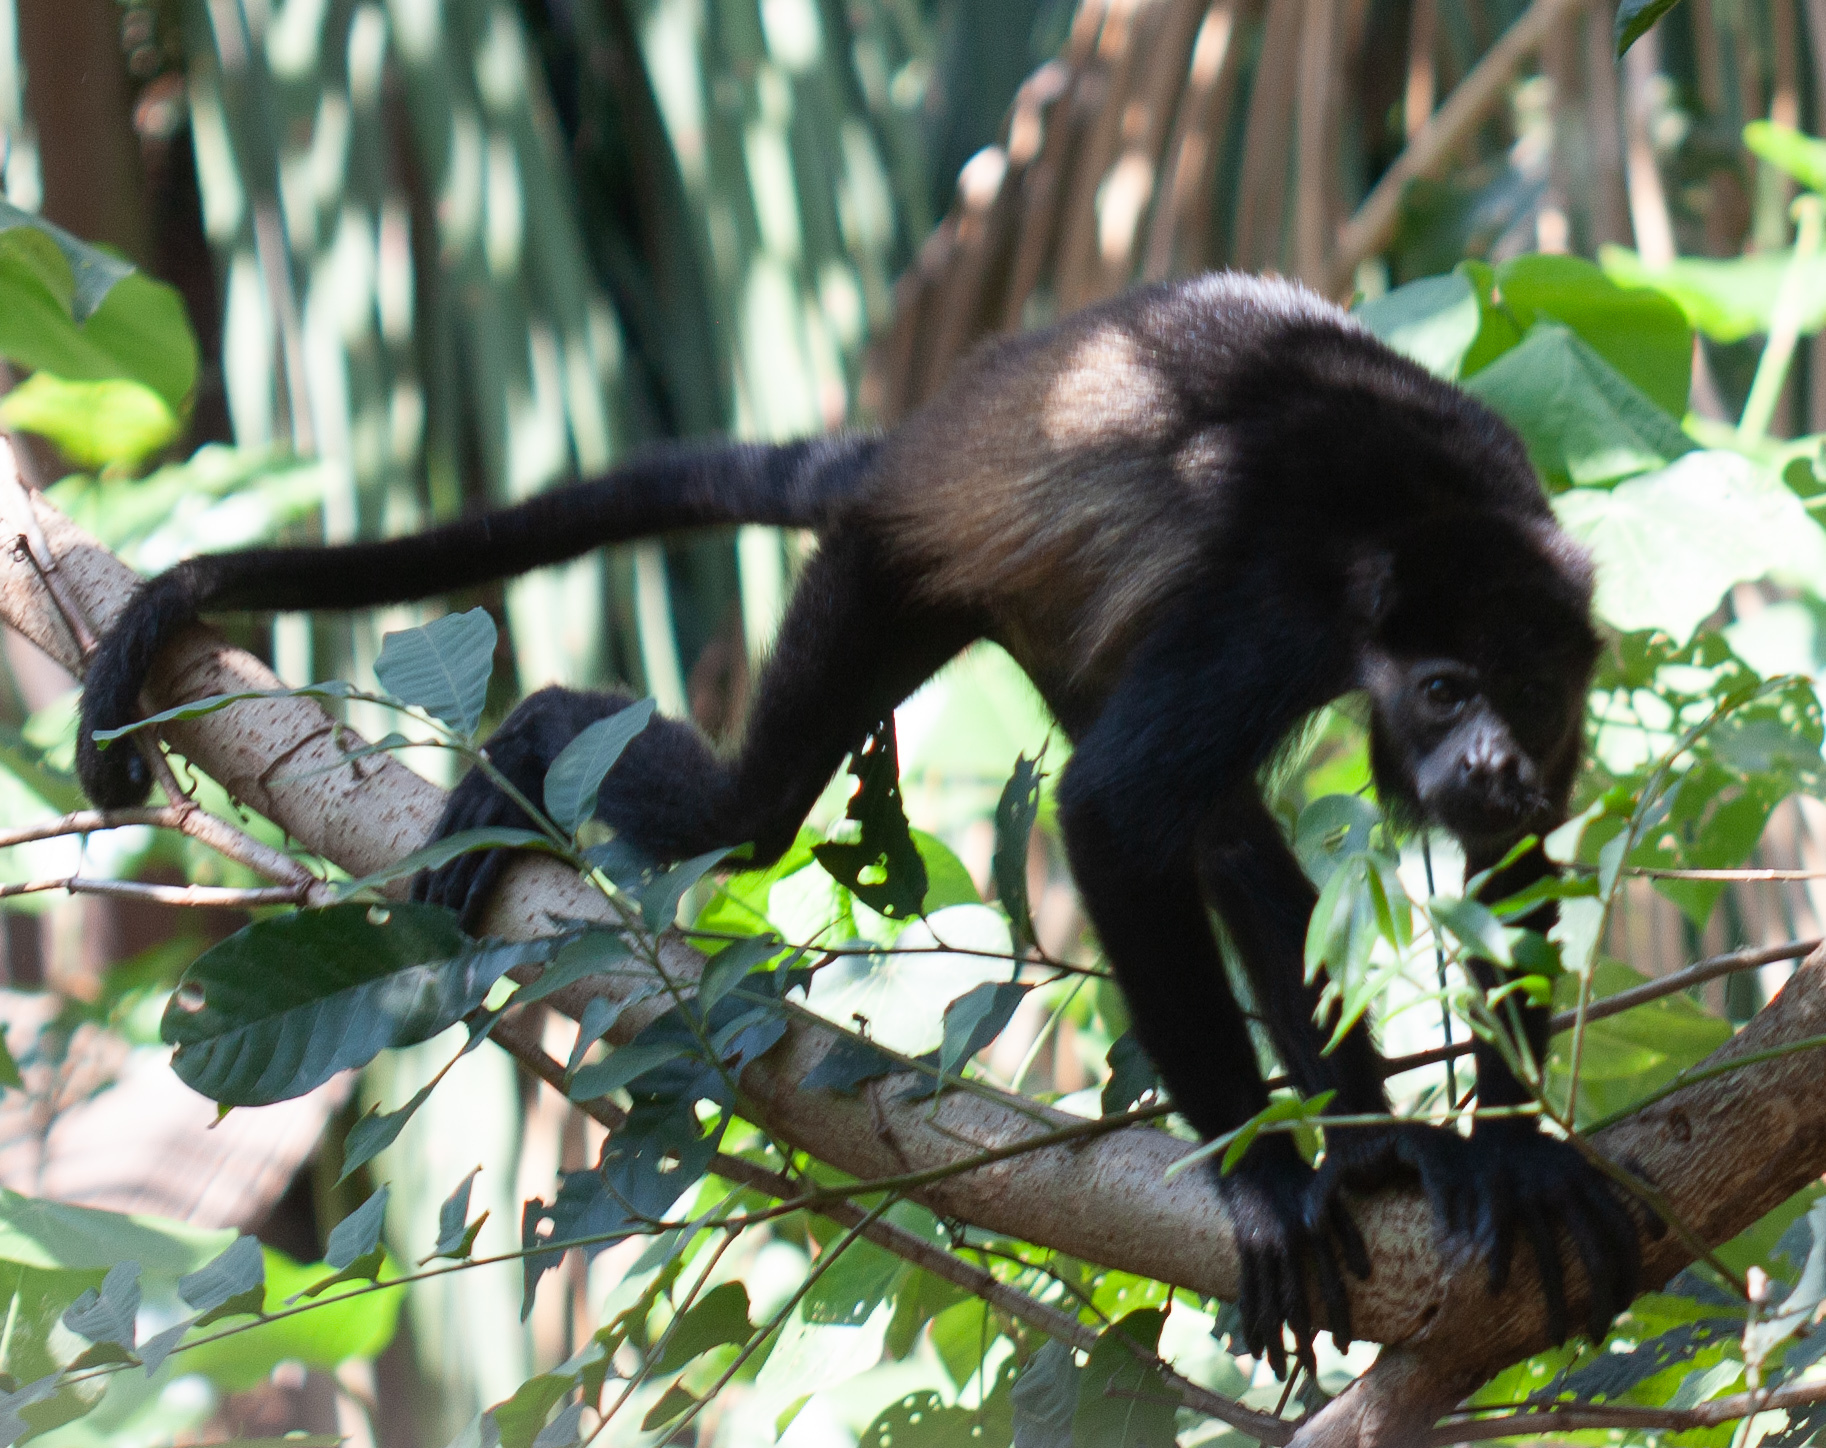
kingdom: Animalia
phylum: Chordata
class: Mammalia
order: Primates
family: Atelidae
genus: Alouatta
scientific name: Alouatta palliata
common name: Mantled howler
